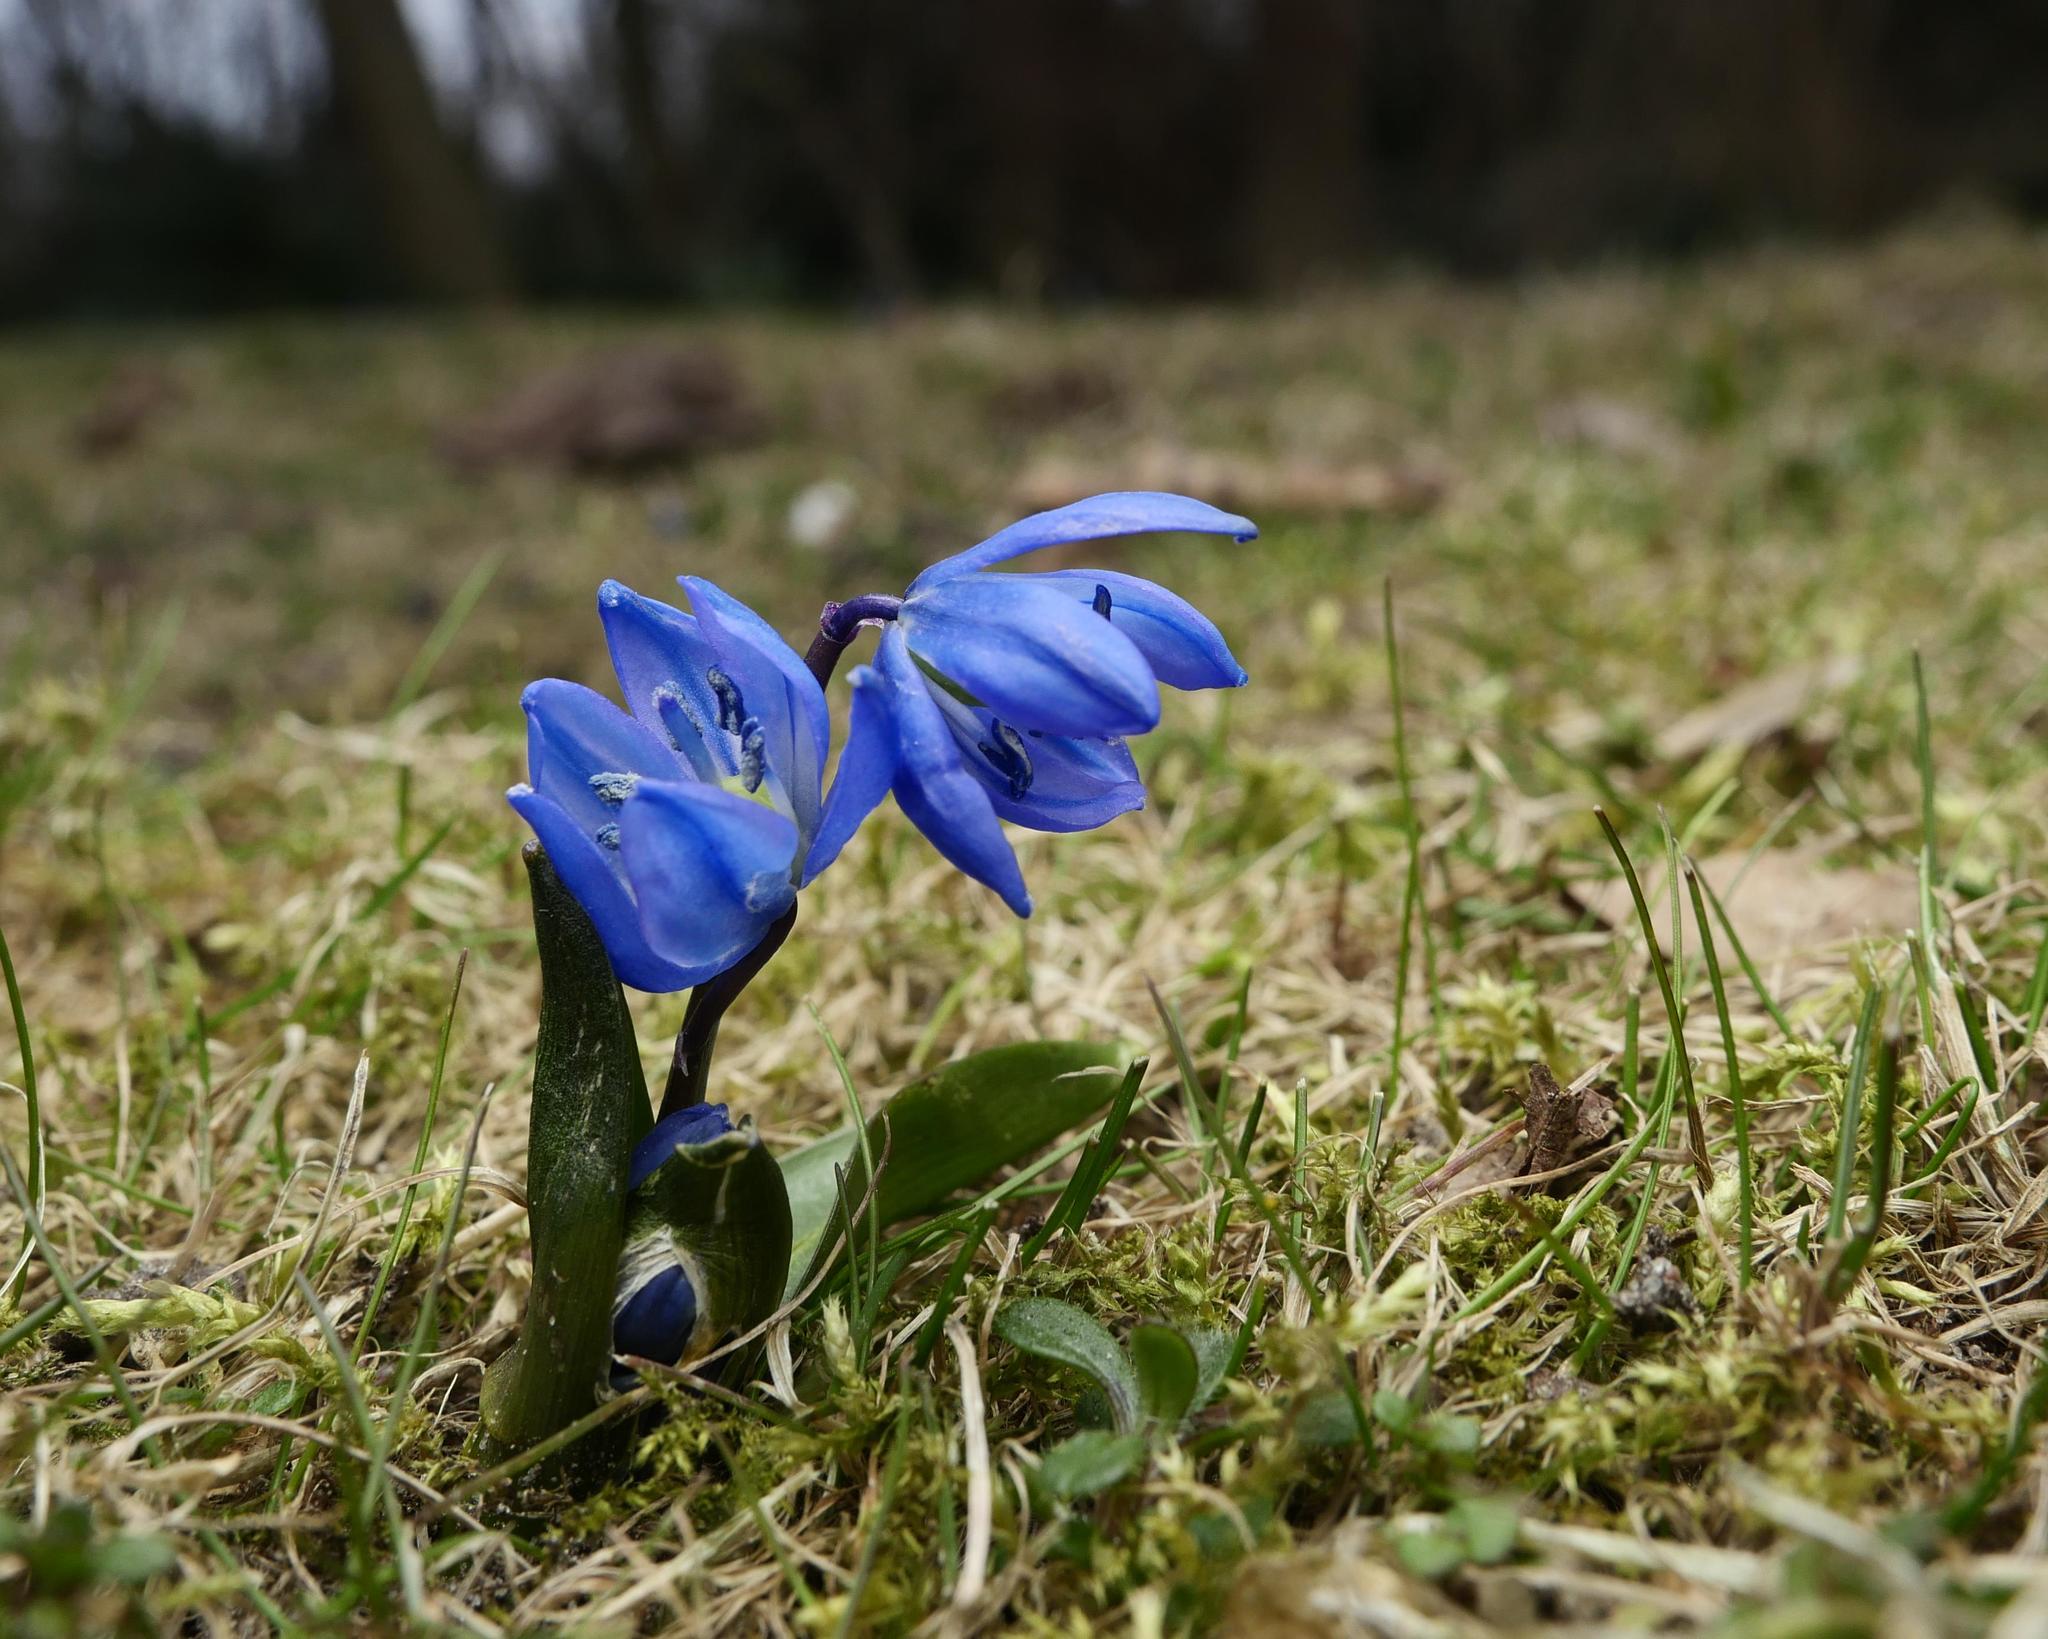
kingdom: Plantae
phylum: Tracheophyta
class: Liliopsida
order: Asparagales
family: Asparagaceae
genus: Scilla
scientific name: Scilla siberica
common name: Siberian squill
